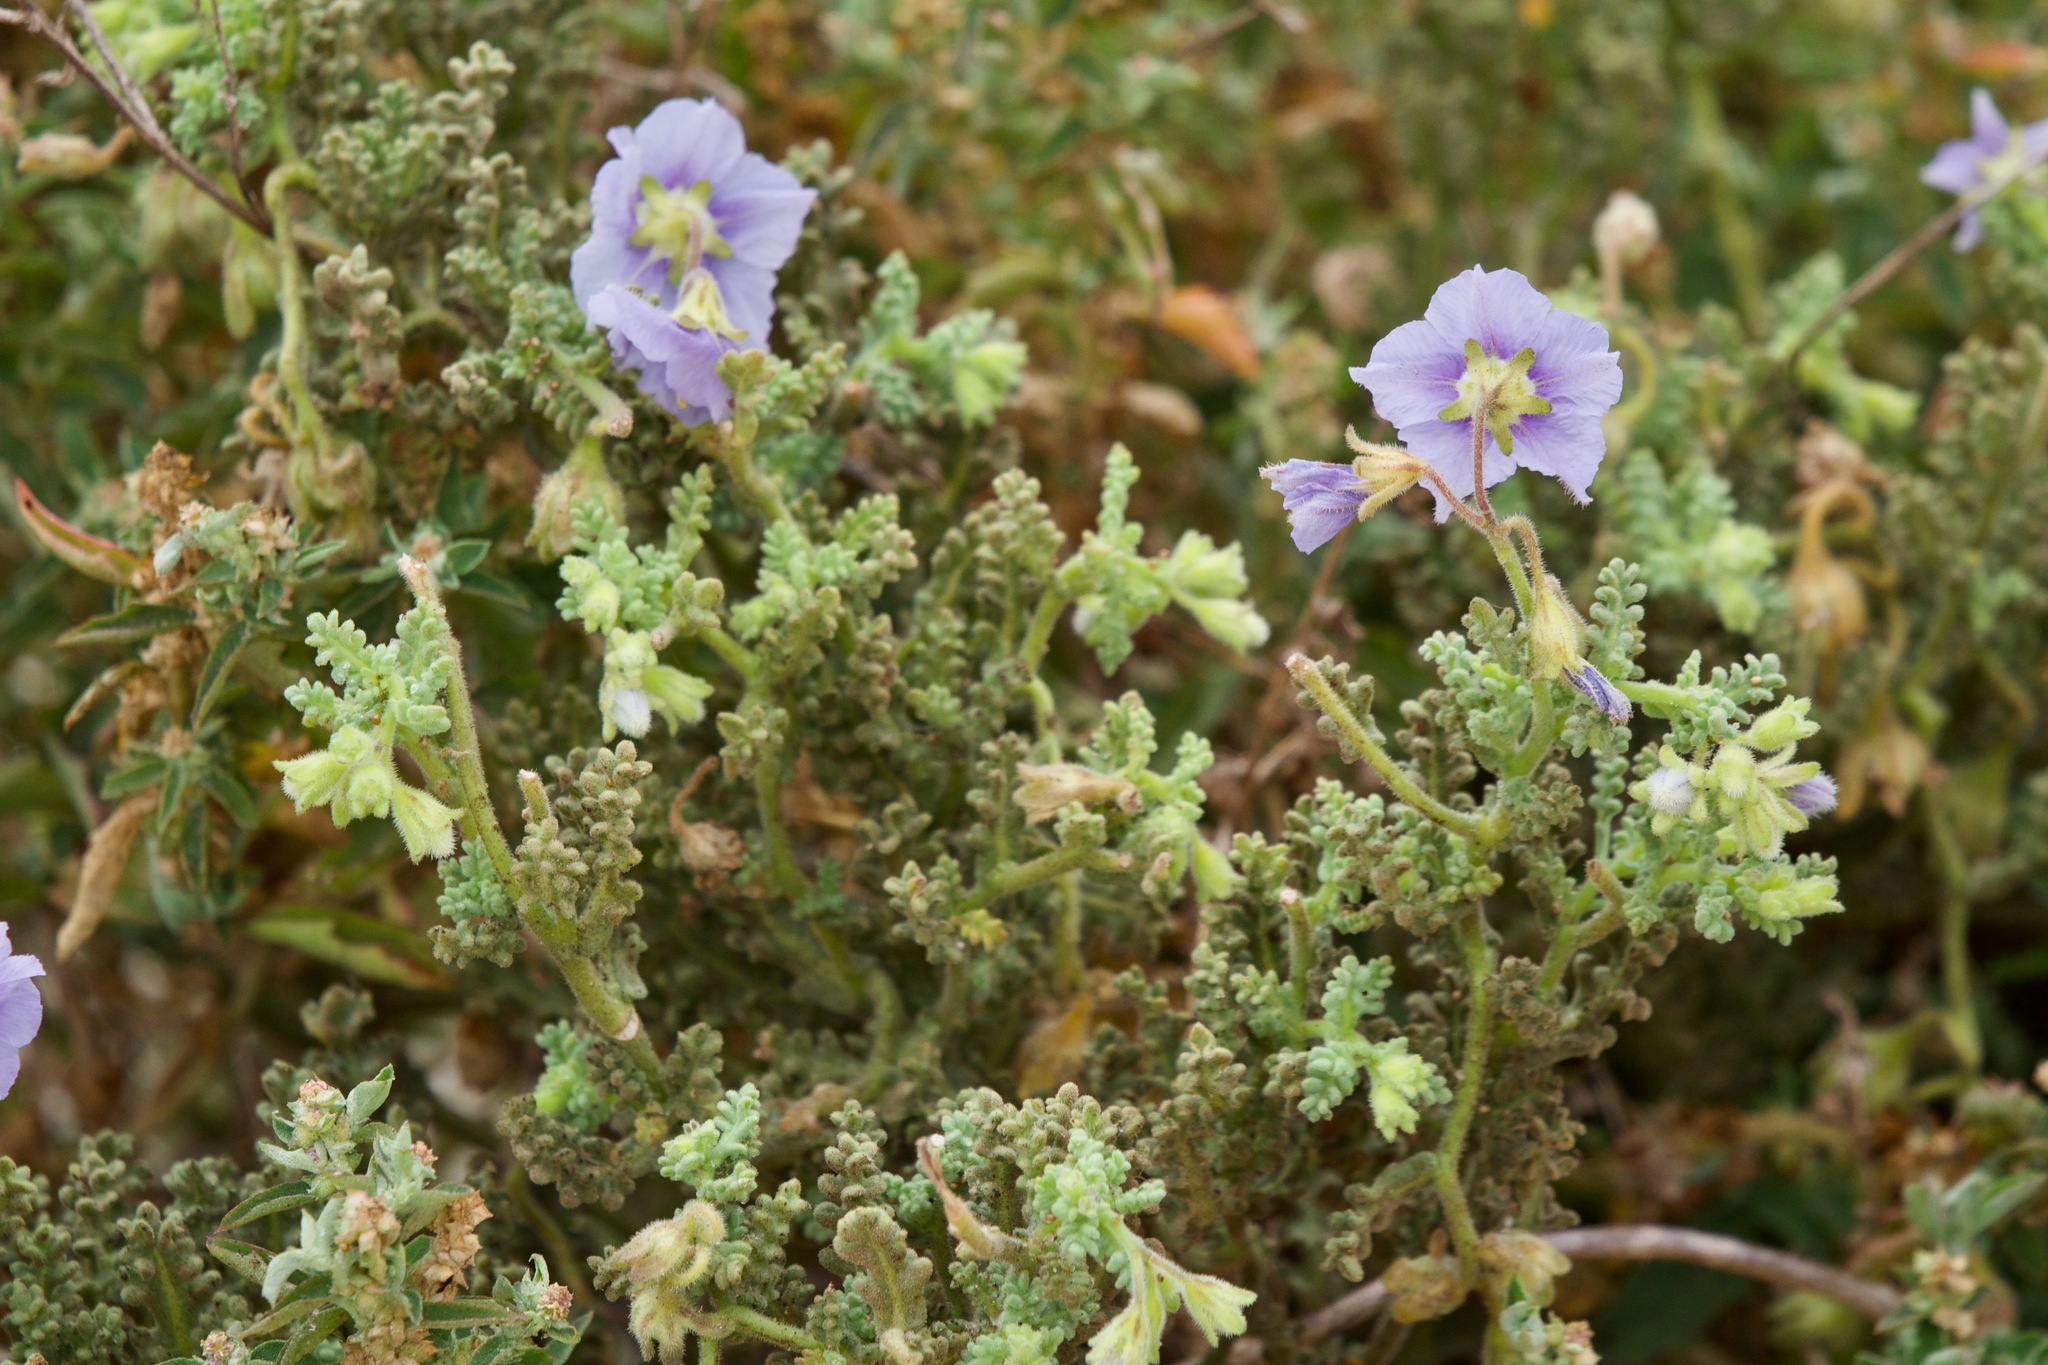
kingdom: Plantae
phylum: Tracheophyta
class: Magnoliopsida
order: Solanales
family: Solanaceae
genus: Solanum
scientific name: Solanum trinominum
